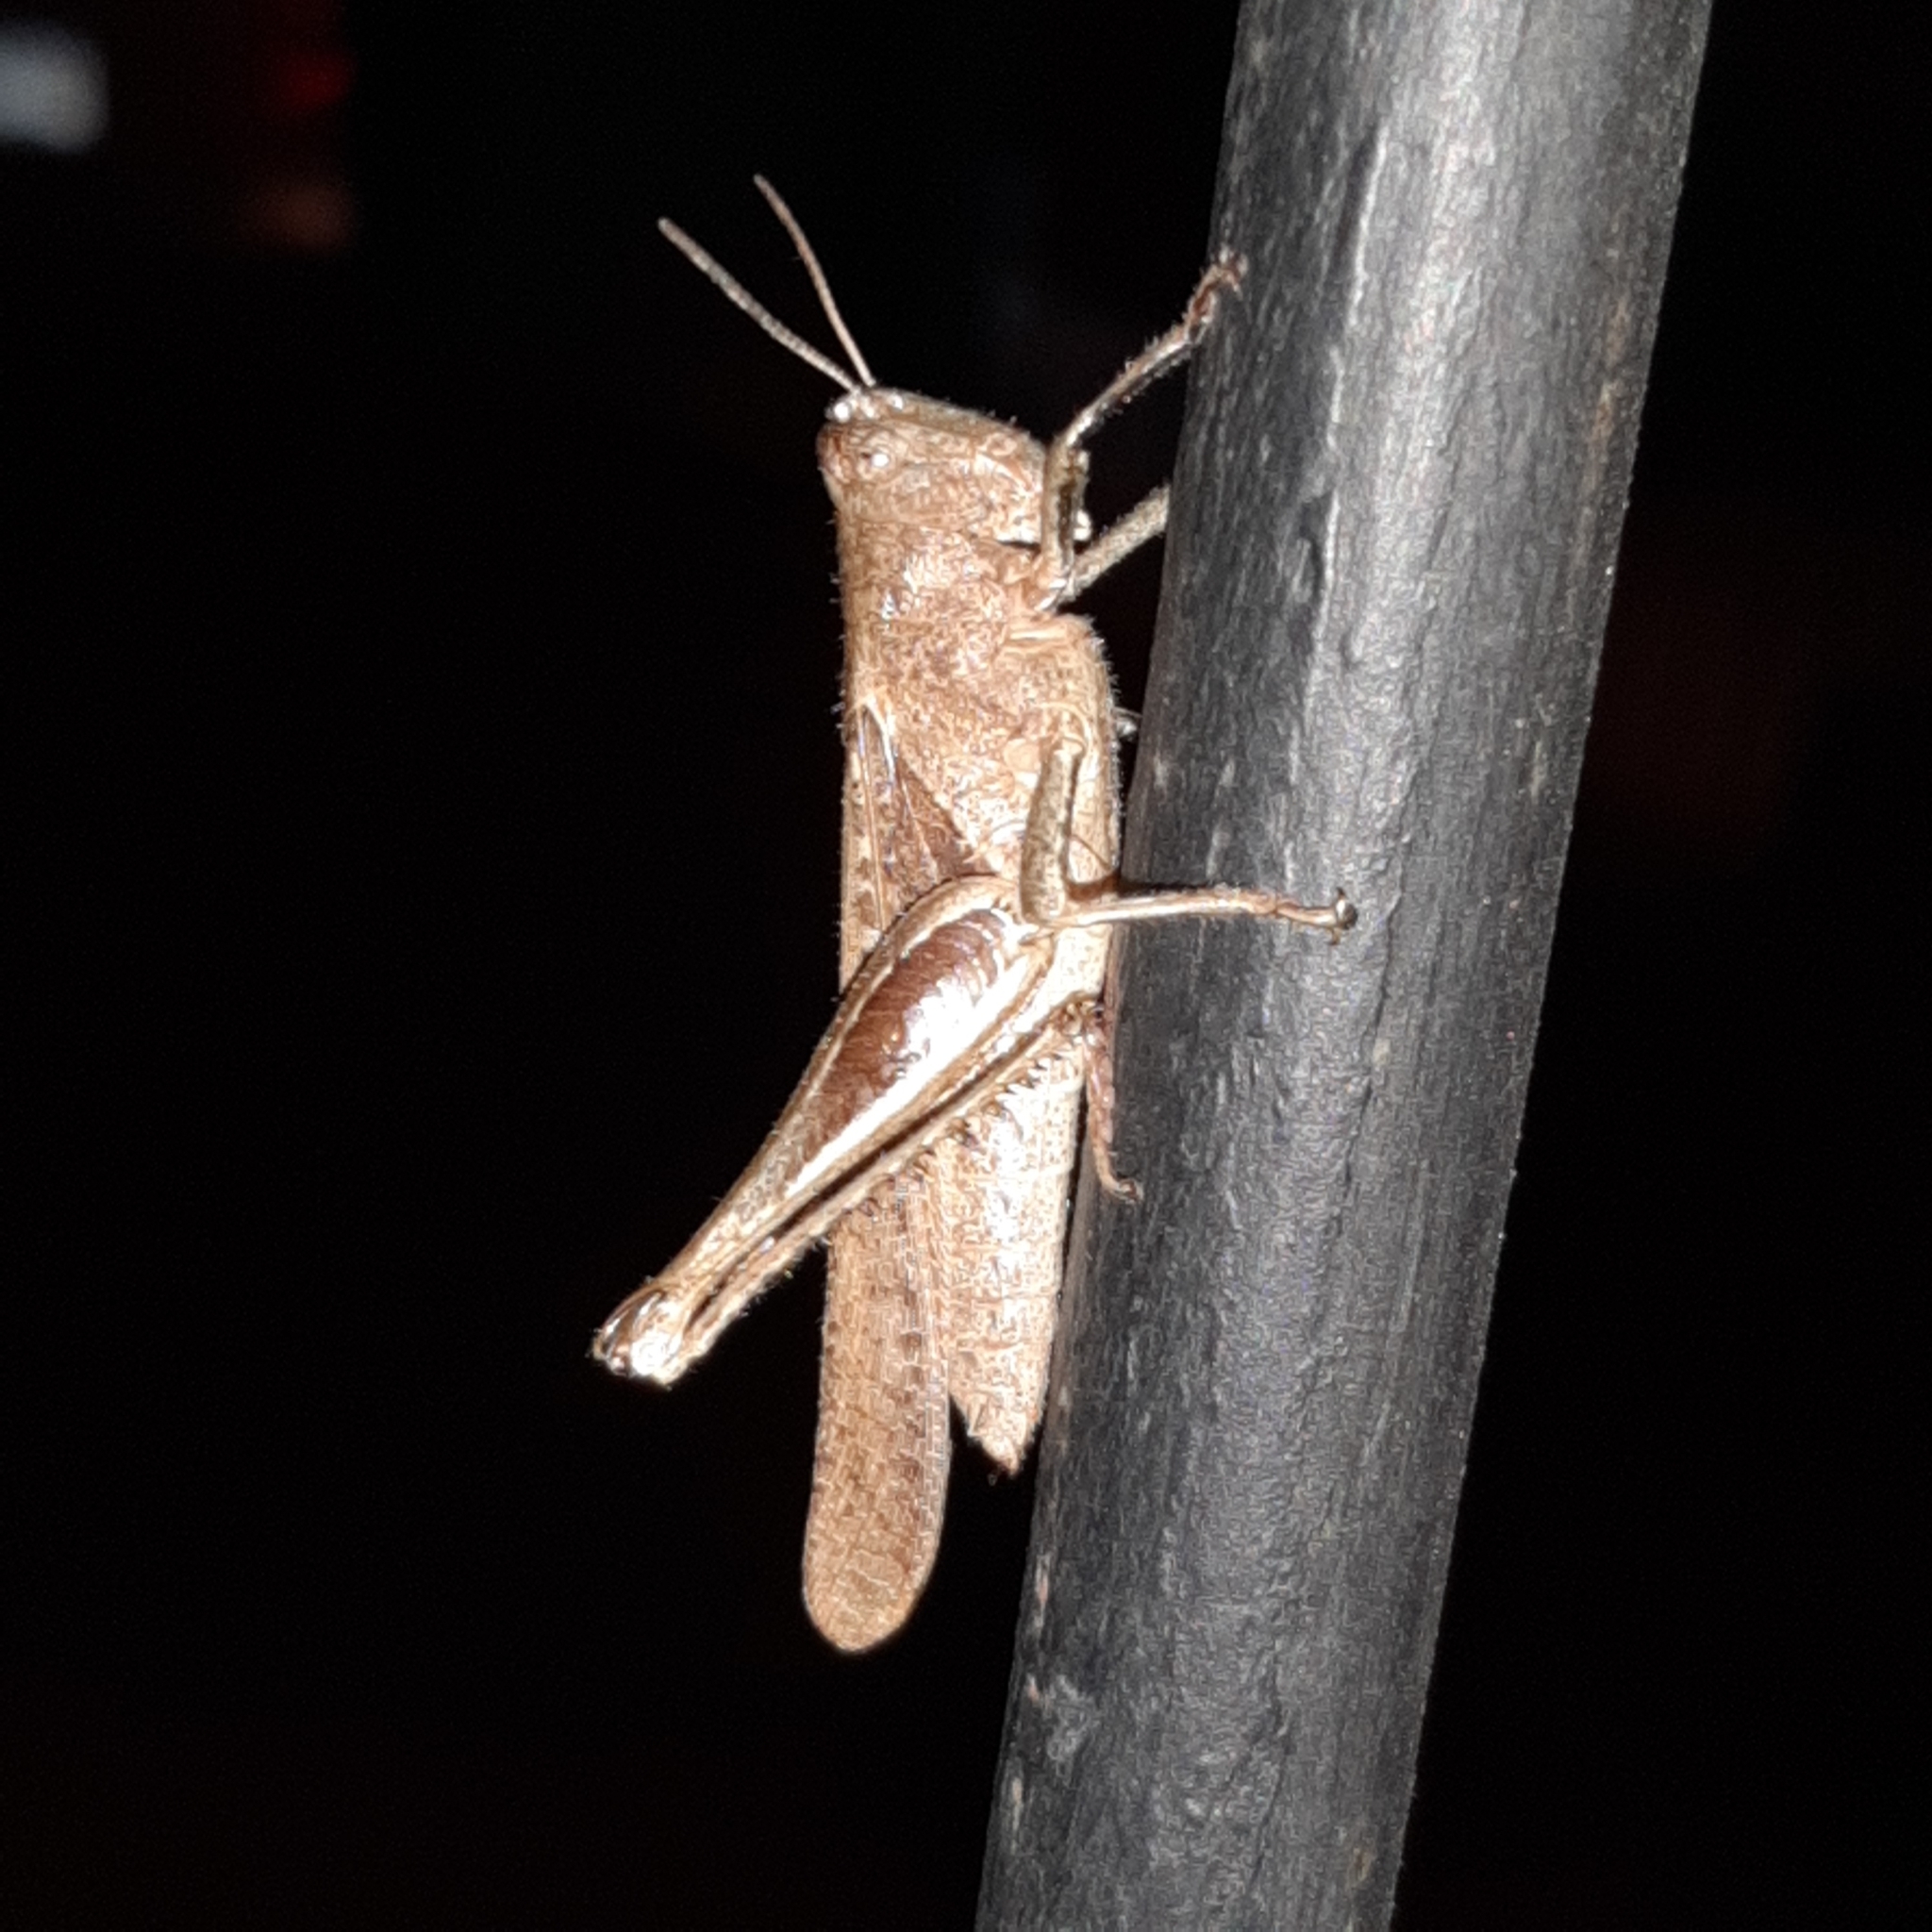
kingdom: Animalia
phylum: Arthropoda
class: Insecta
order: Orthoptera
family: Acrididae
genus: Abracris
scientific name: Abracris flavolineata
